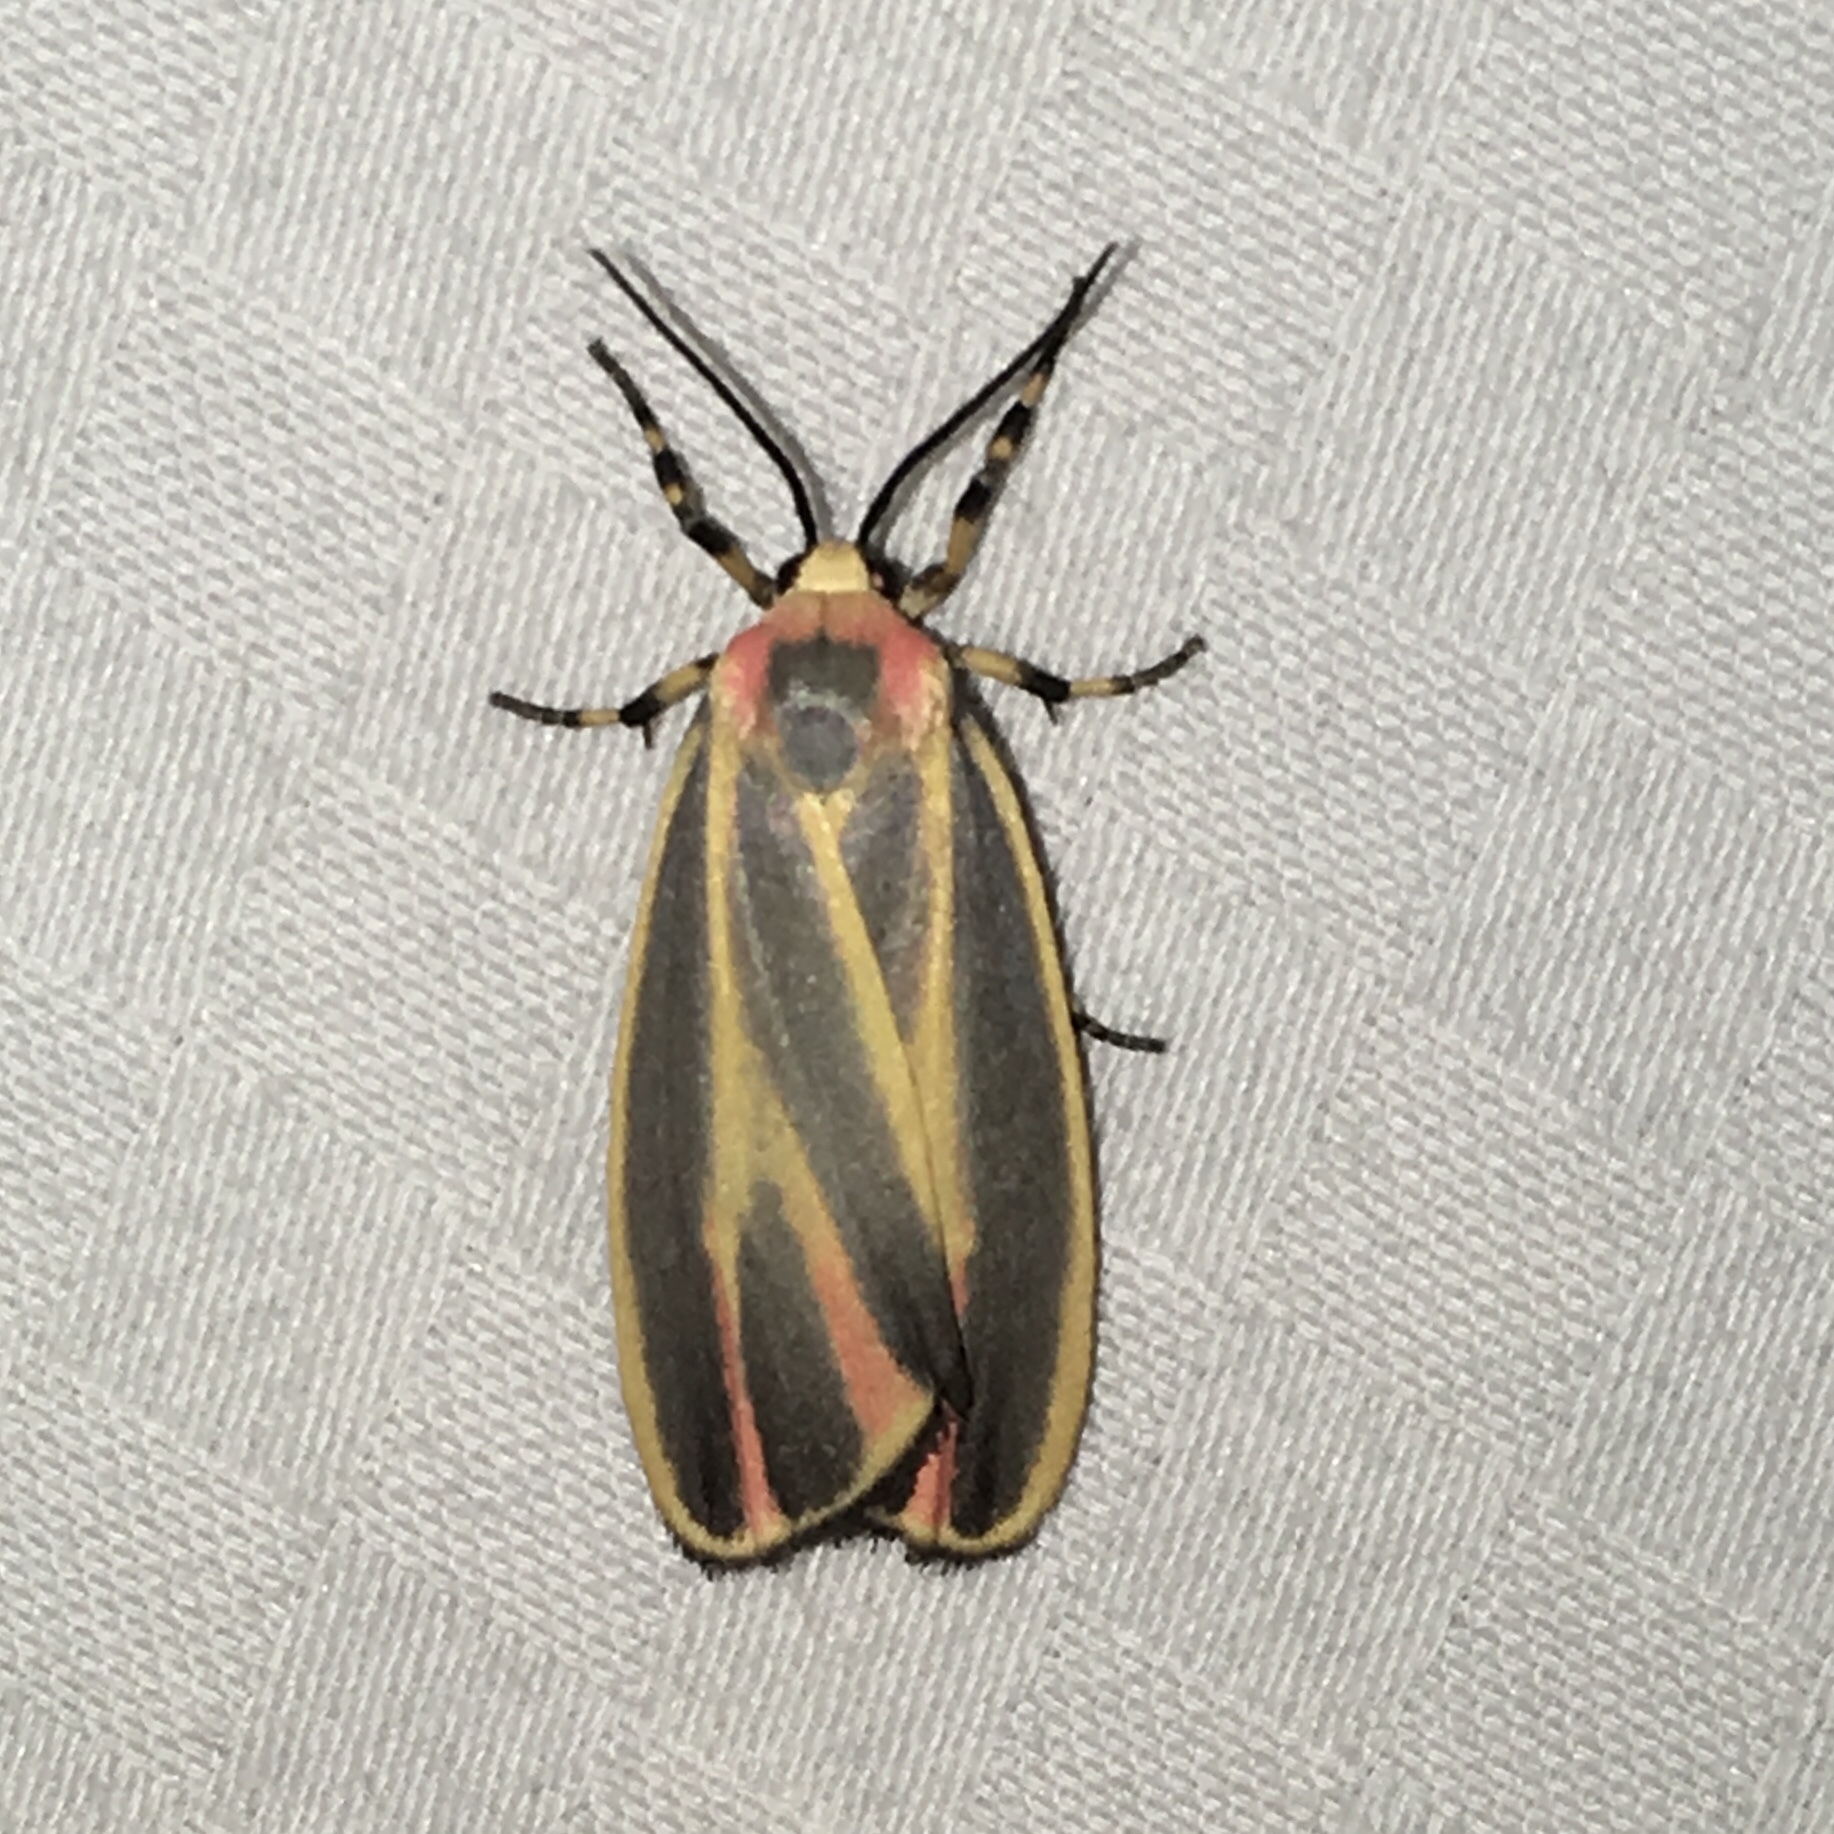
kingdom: Animalia
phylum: Arthropoda
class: Insecta
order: Lepidoptera
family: Erebidae
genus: Hypoprepia
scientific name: Hypoprepia fucosa
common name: Painted lichen moth
